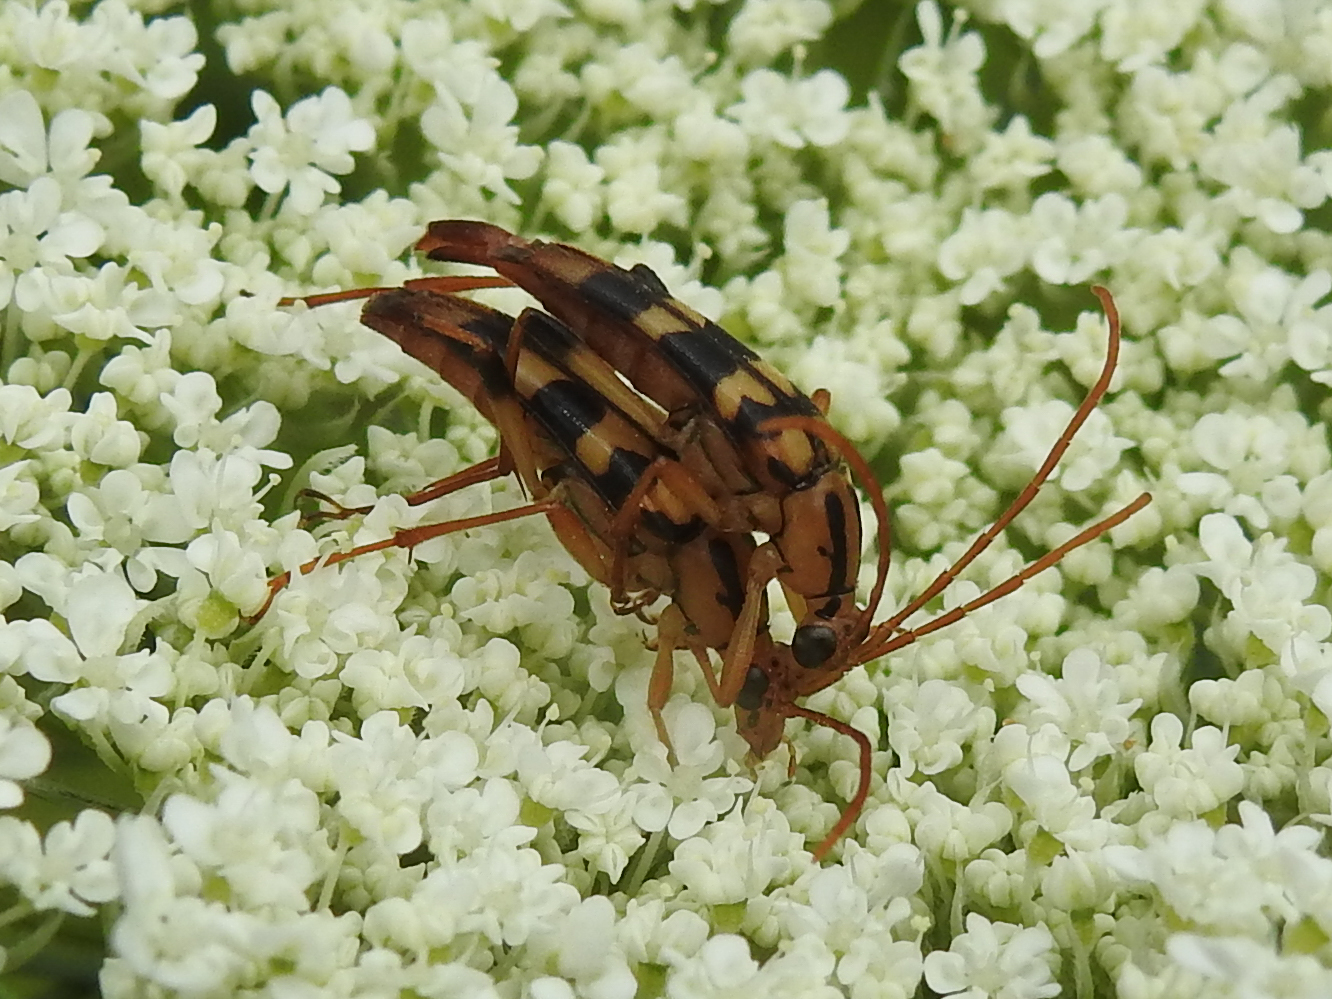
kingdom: Animalia
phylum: Arthropoda
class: Insecta
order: Coleoptera
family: Cerambycidae
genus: Strangalia
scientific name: Strangalia luteicornis
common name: Yellow-horned flower longhorn beetle
